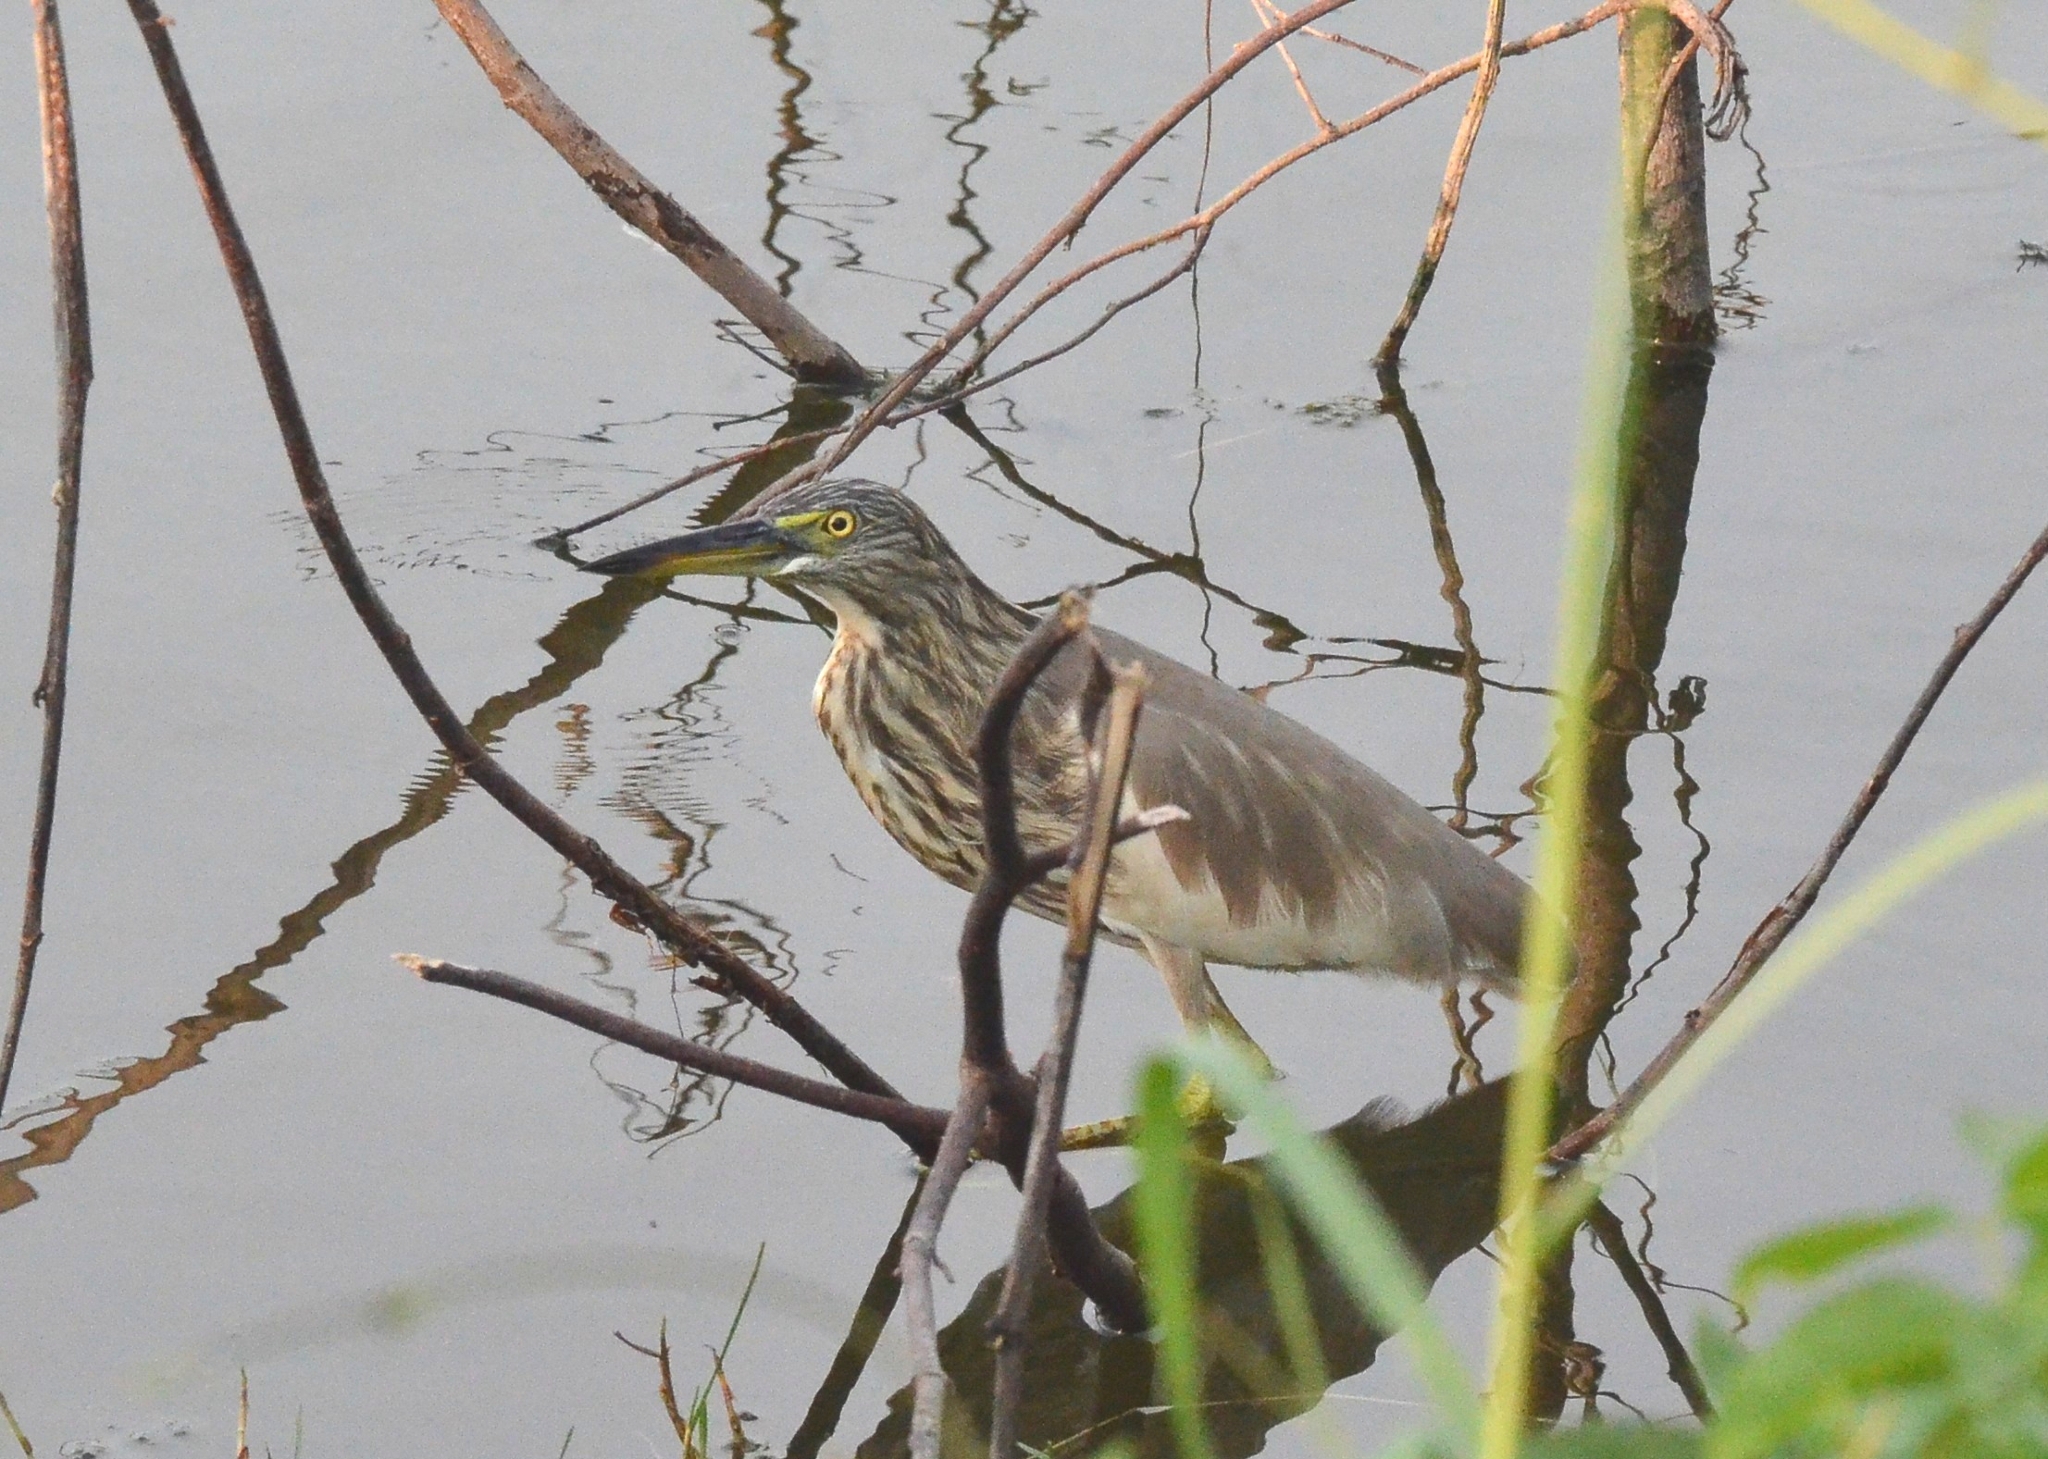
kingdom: Animalia
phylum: Chordata
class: Aves
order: Pelecaniformes
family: Ardeidae
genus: Ardeola
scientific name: Ardeola grayii
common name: Indian pond heron
